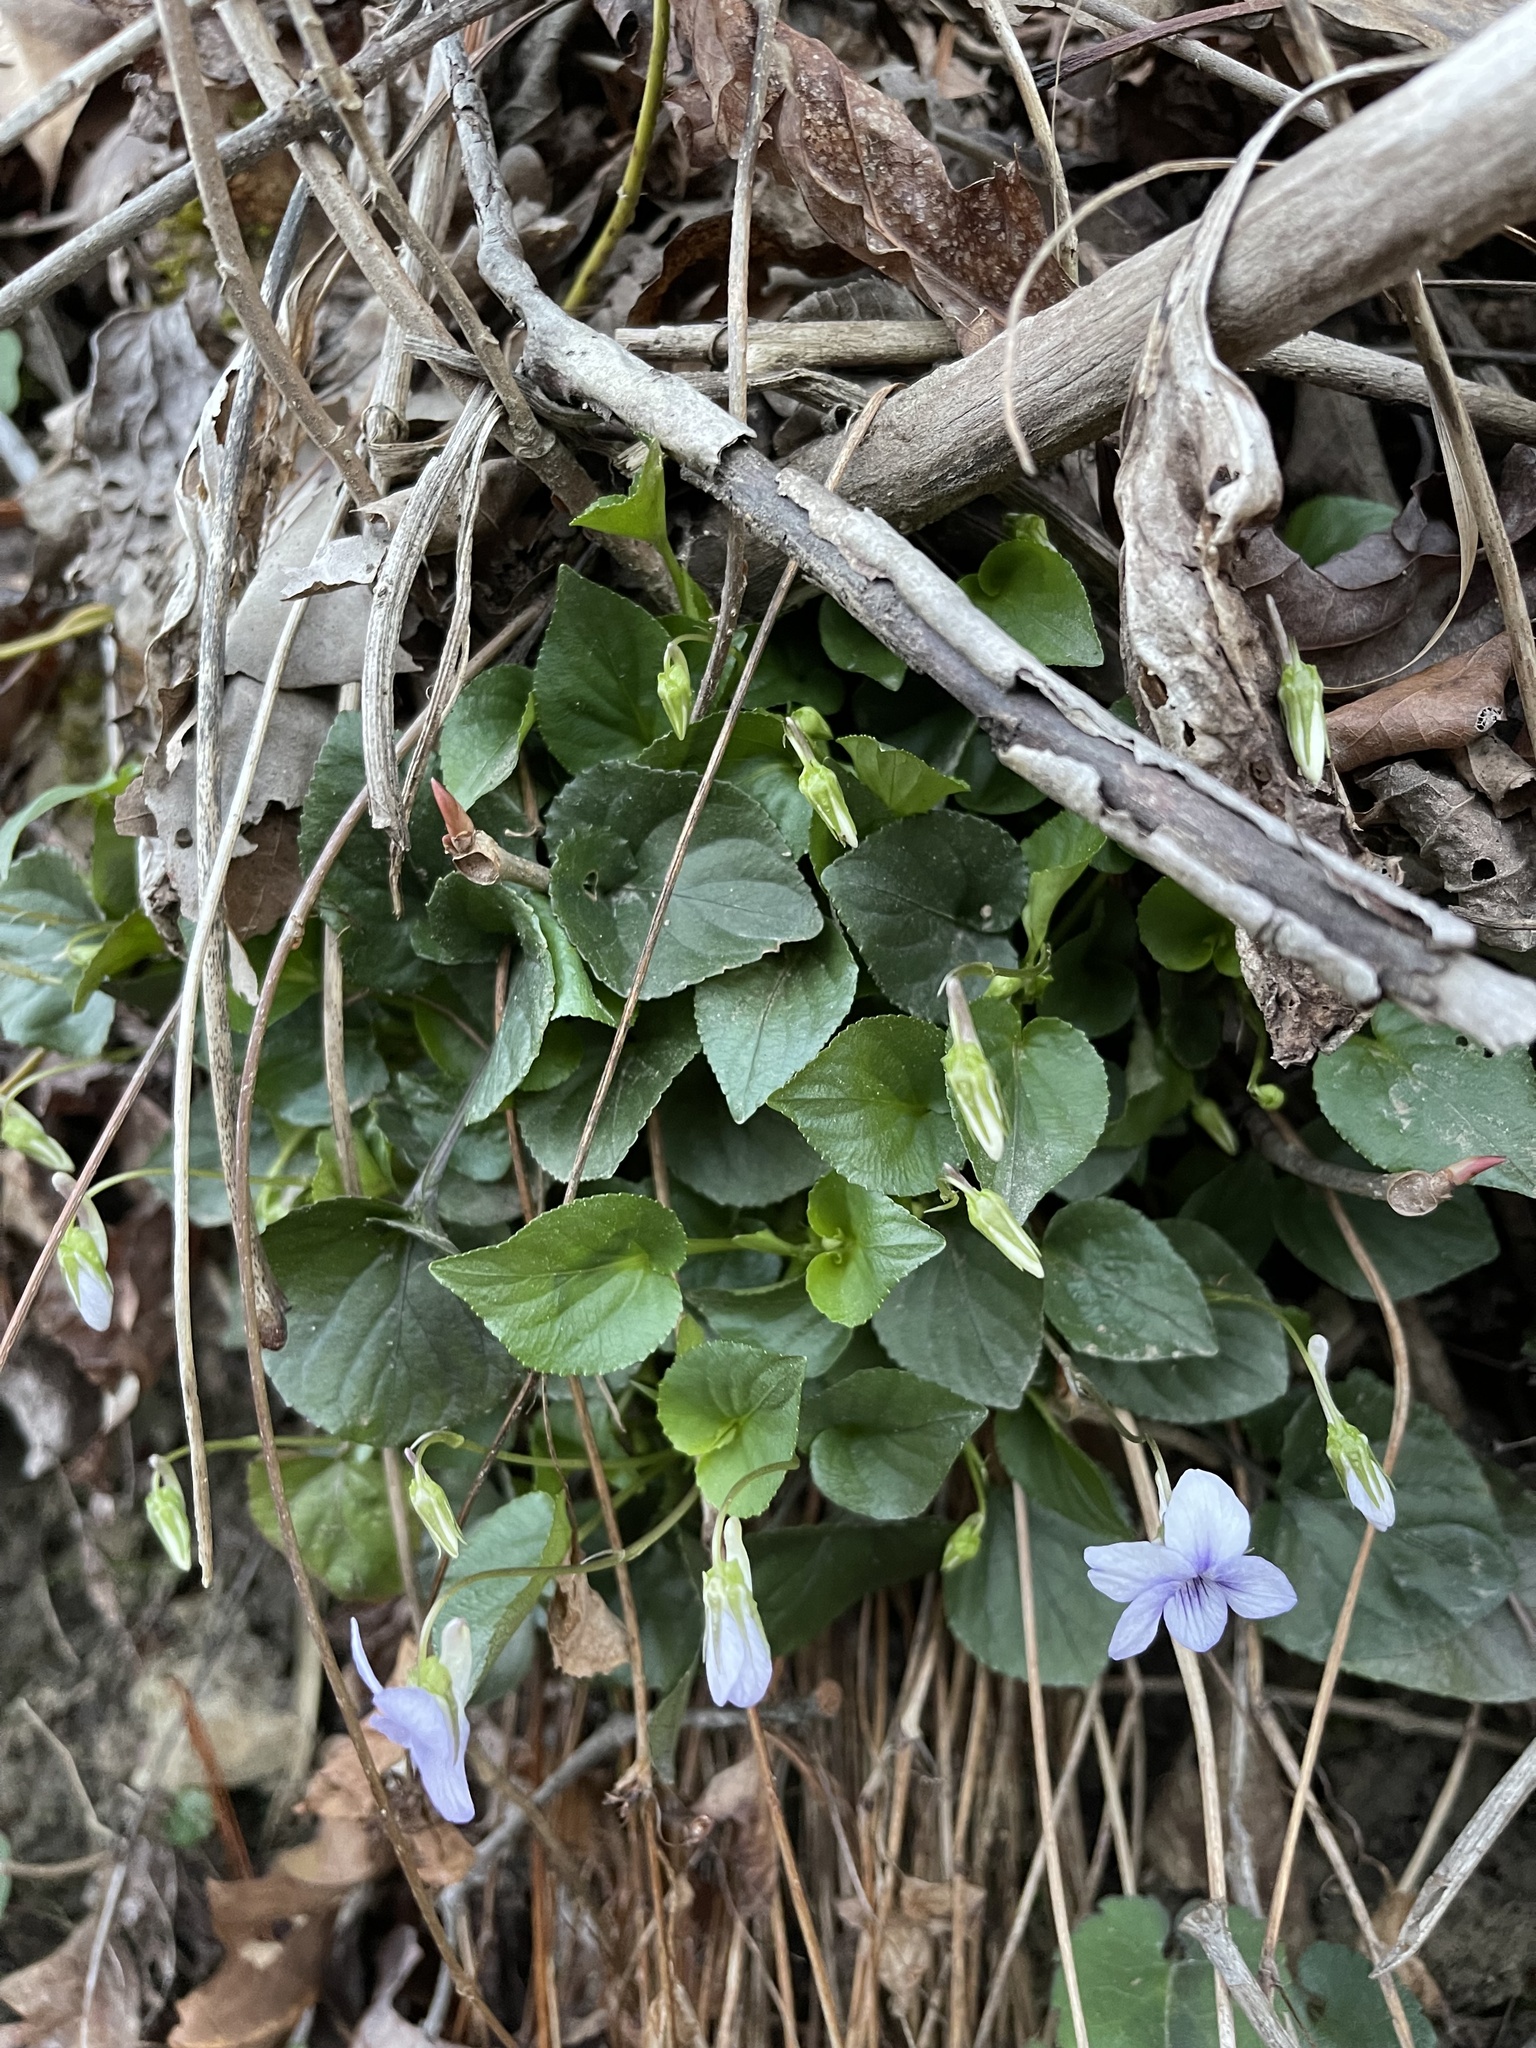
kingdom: Plantae
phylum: Tracheophyta
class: Magnoliopsida
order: Malpighiales
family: Violaceae
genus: Viola
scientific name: Viola rostrata
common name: Long-spur violet
